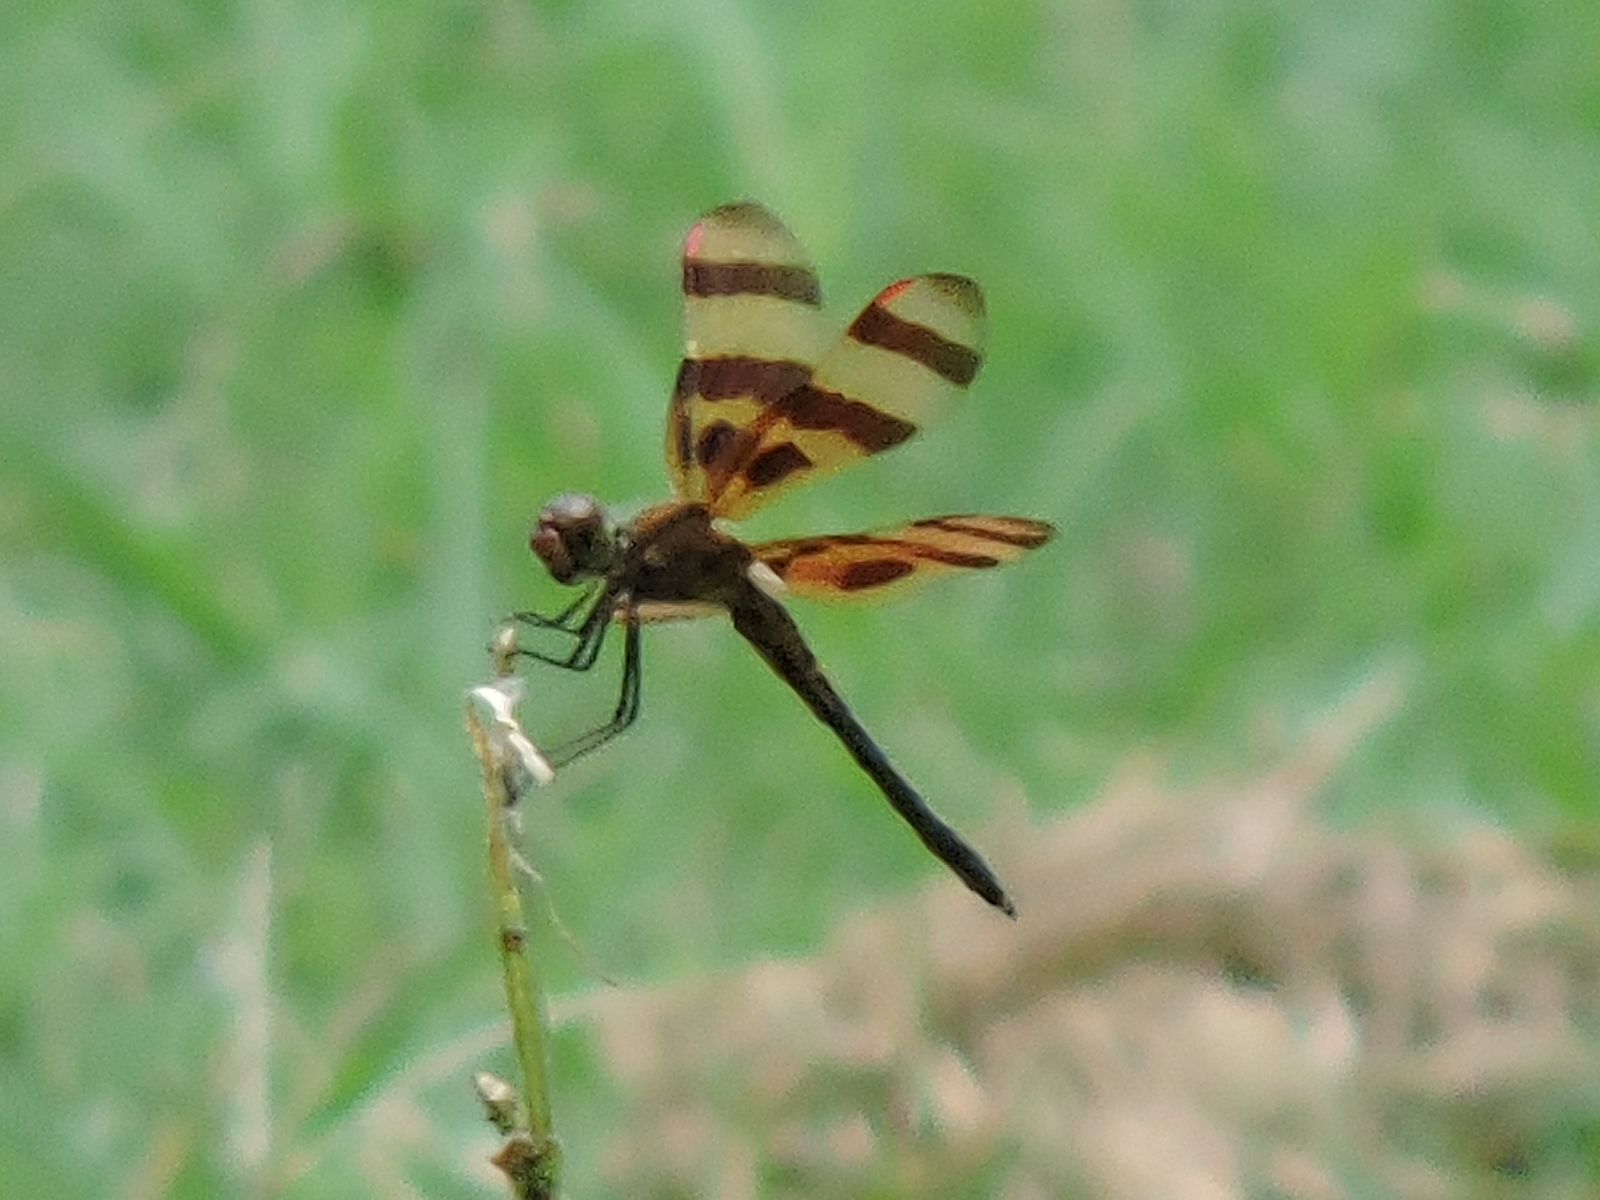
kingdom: Animalia
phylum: Arthropoda
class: Insecta
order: Odonata
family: Libellulidae
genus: Celithemis
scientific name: Celithemis eponina
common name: Halloween pennant
